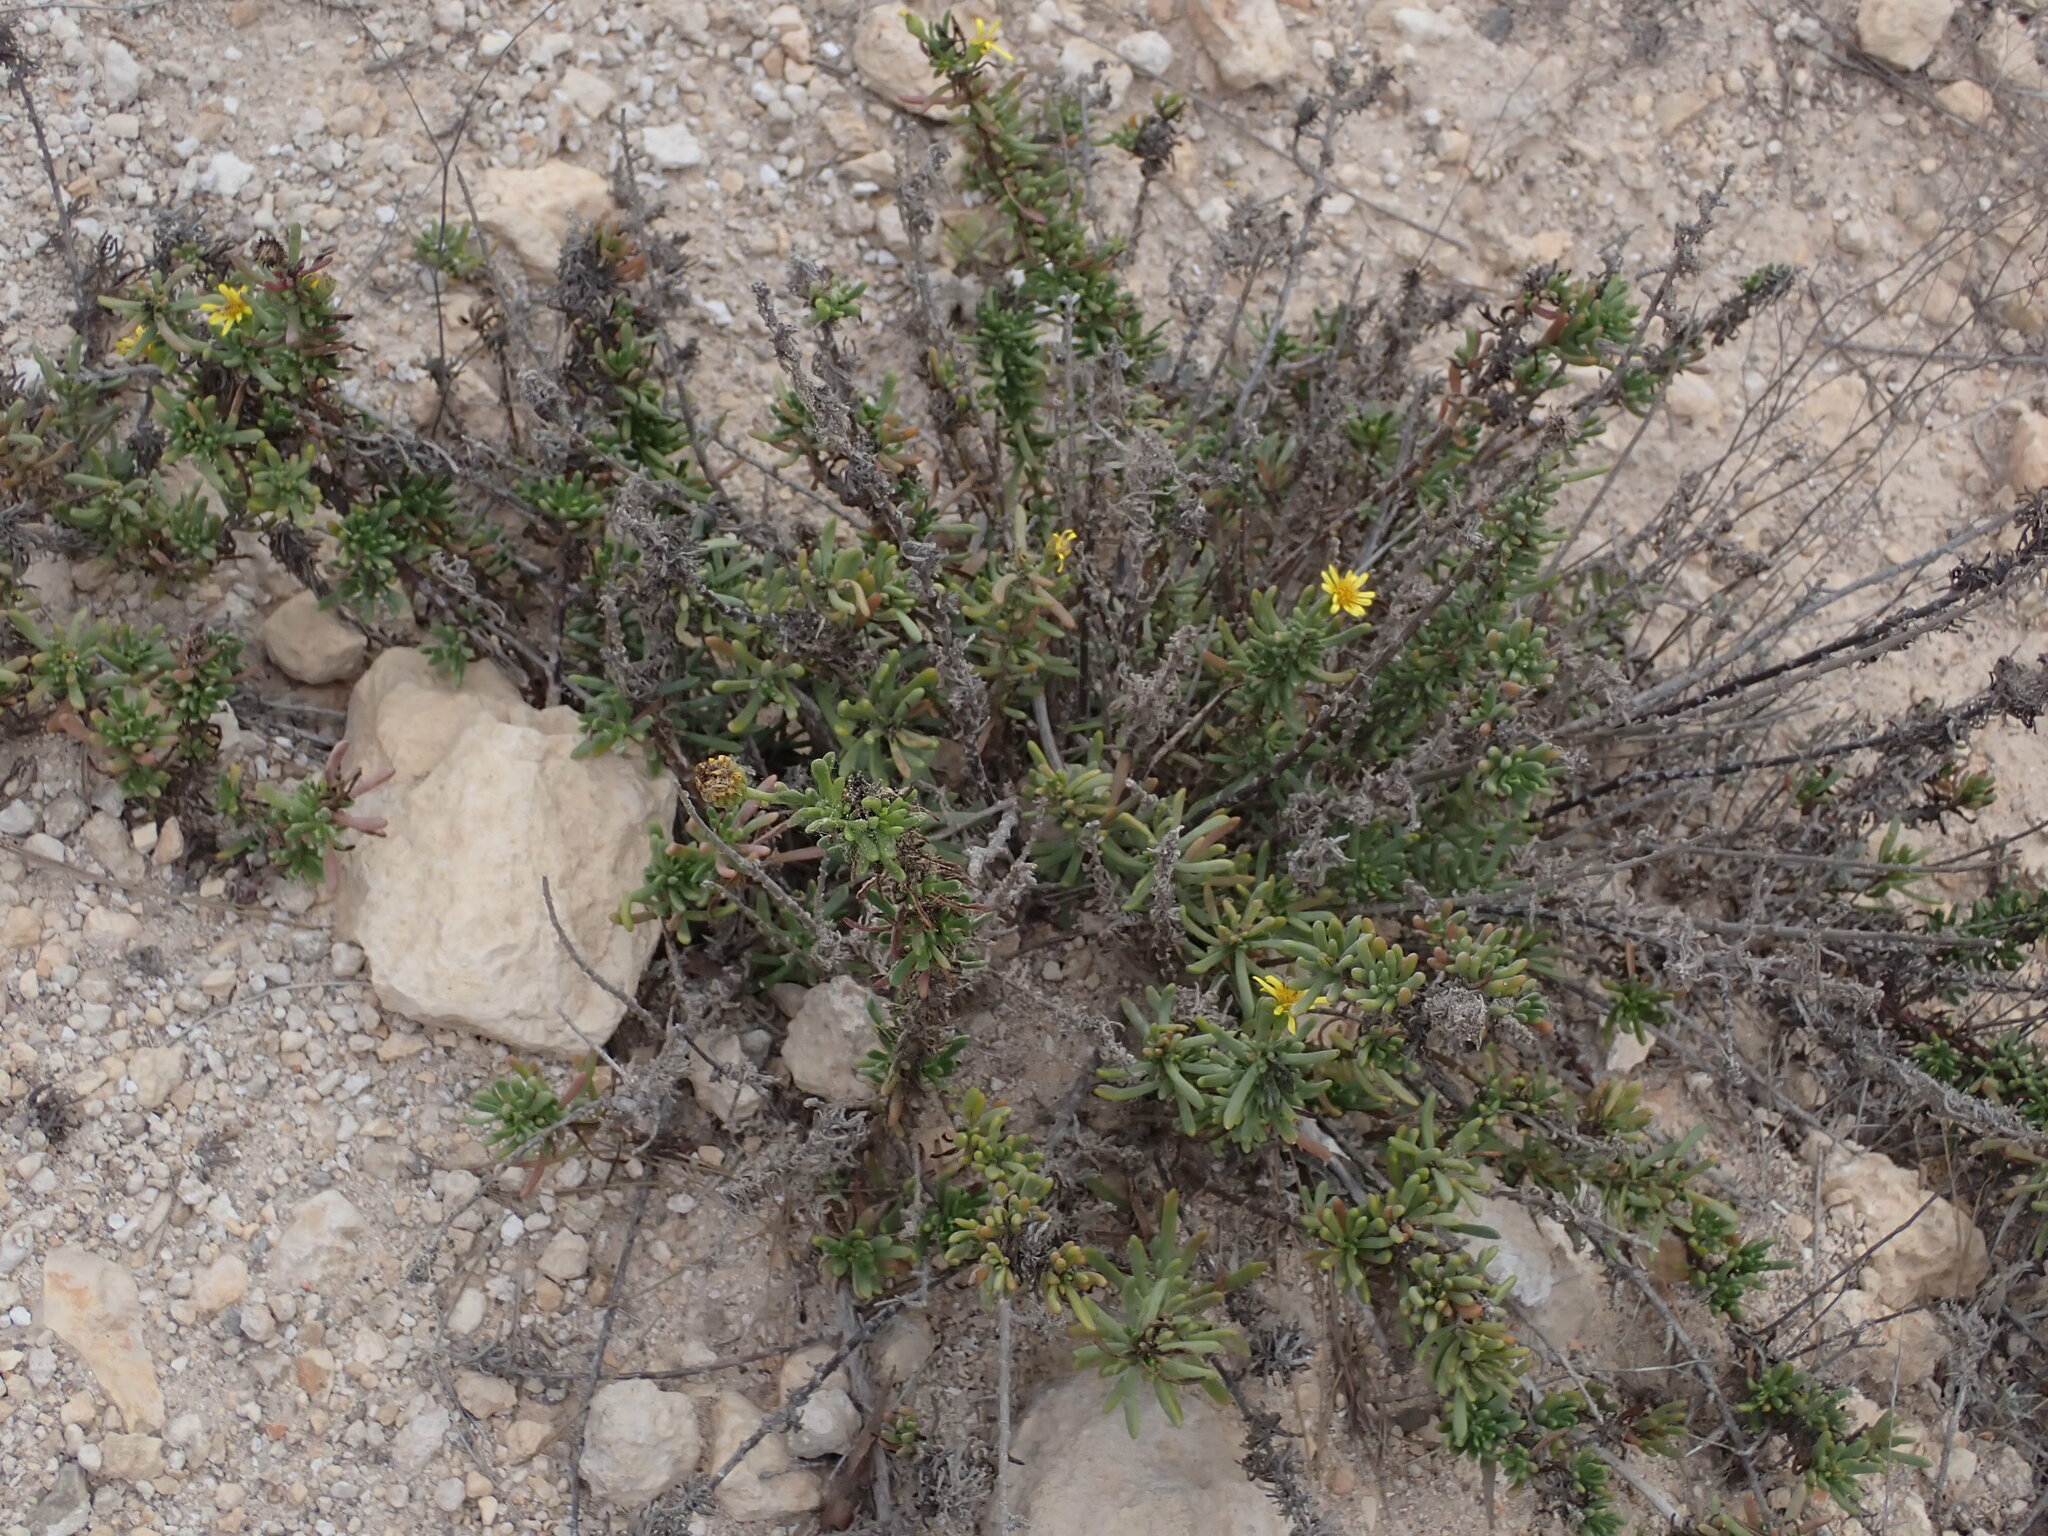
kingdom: Plantae
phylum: Tracheophyta
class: Magnoliopsida
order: Asterales
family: Asteraceae
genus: Limbarda
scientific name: Limbarda crithmoides
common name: Golden samphire
